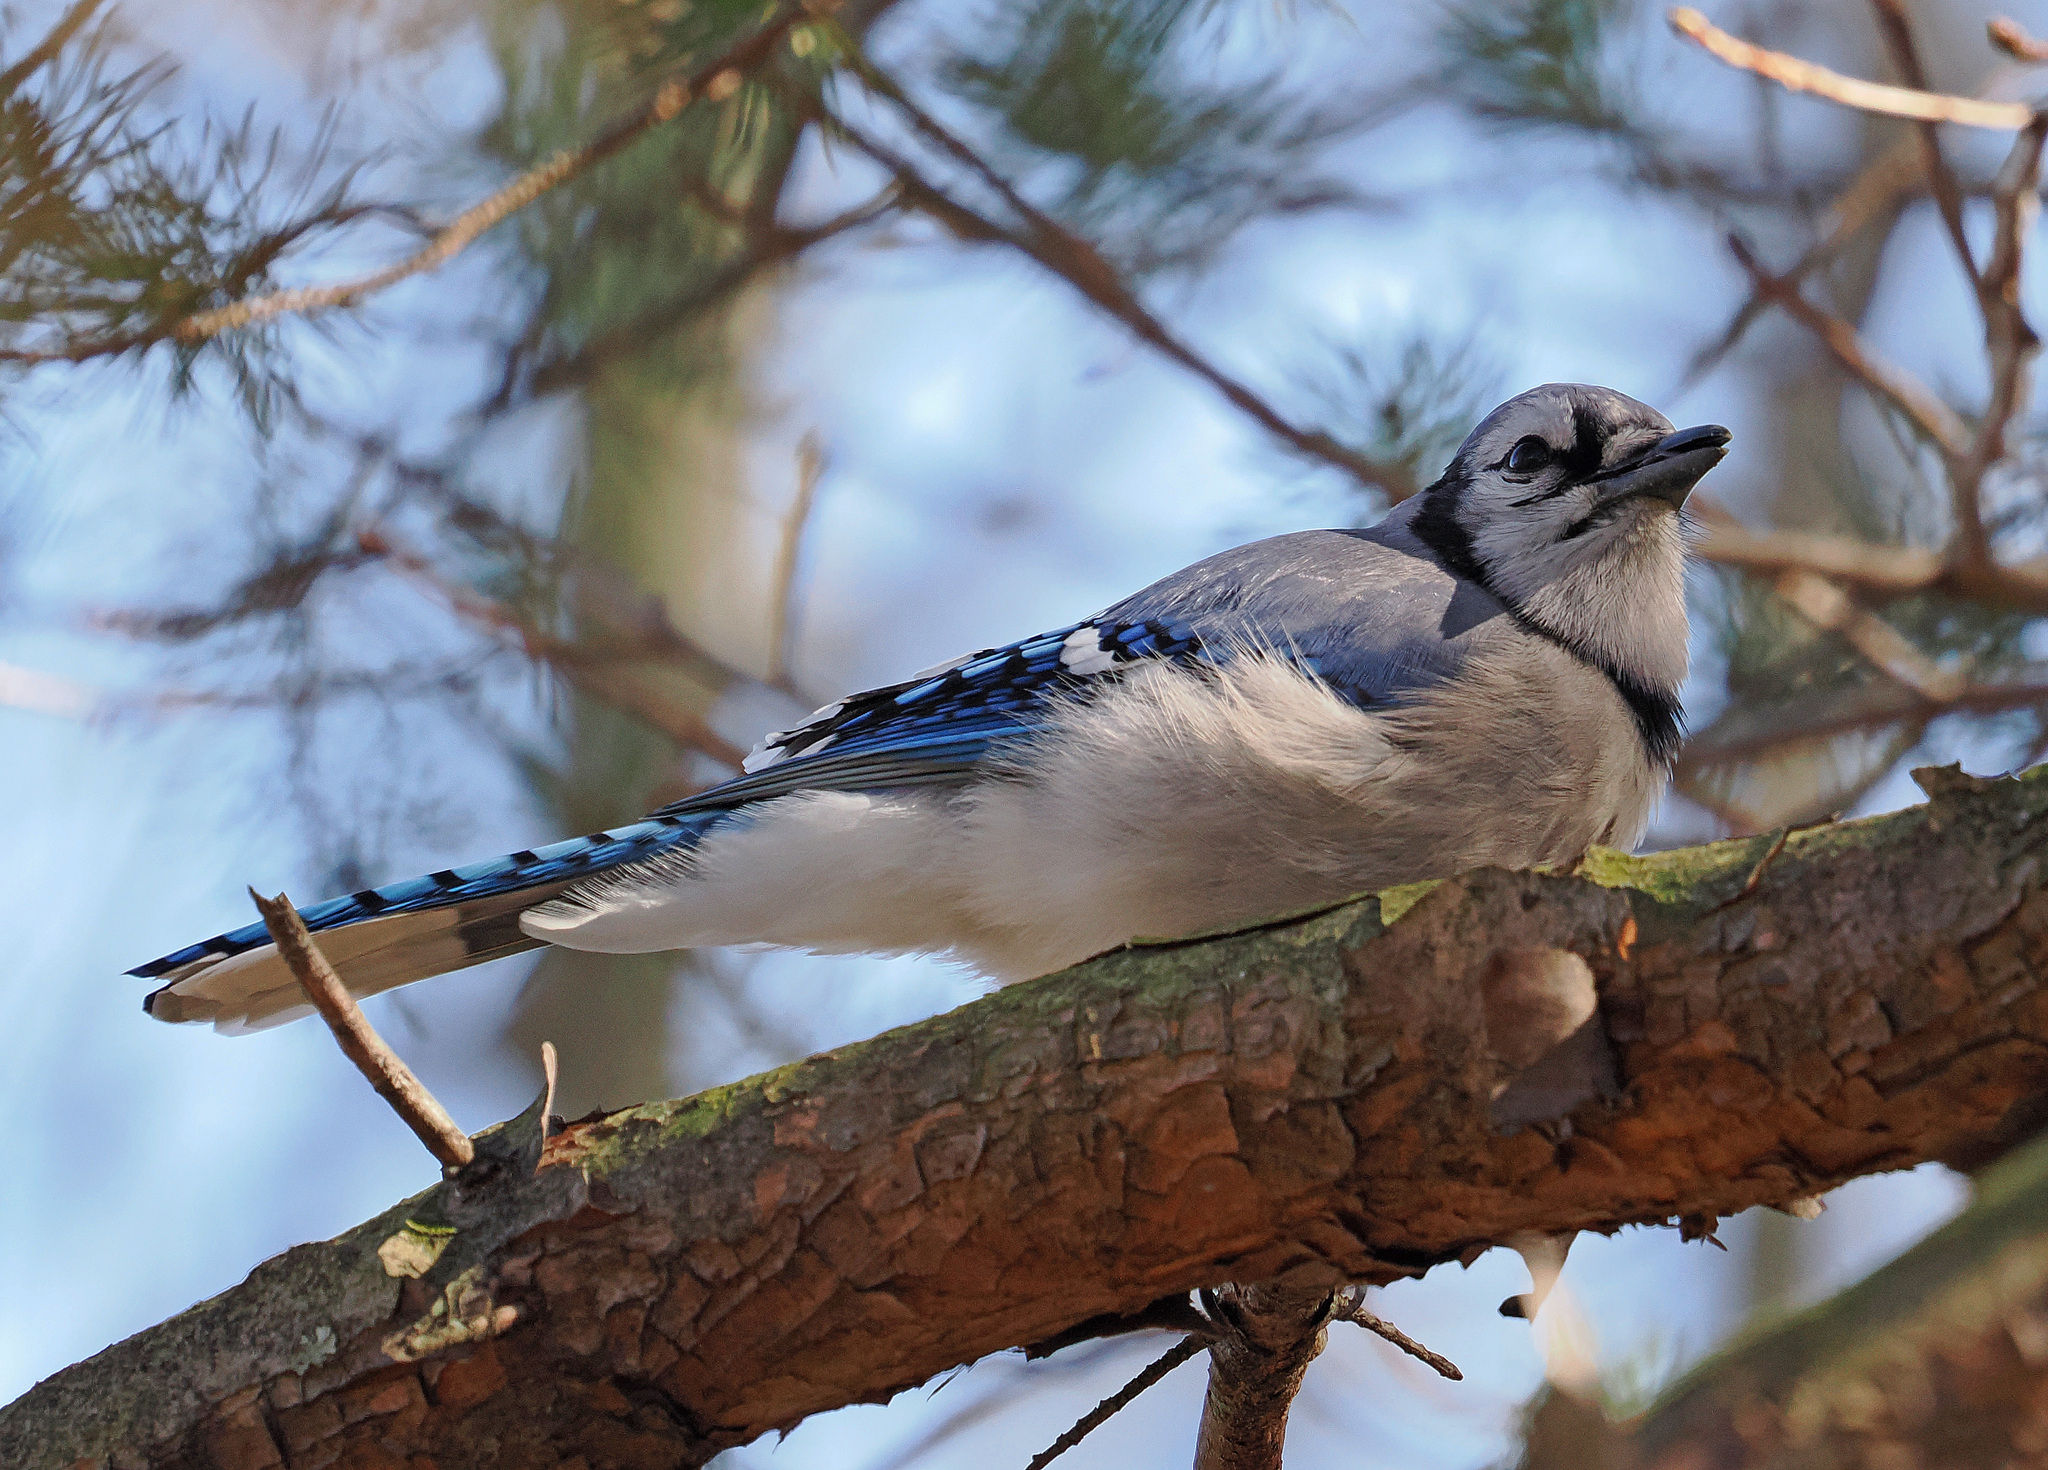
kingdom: Animalia
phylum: Chordata
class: Aves
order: Passeriformes
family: Corvidae
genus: Cyanocitta
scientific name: Cyanocitta cristata
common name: Blue jay
